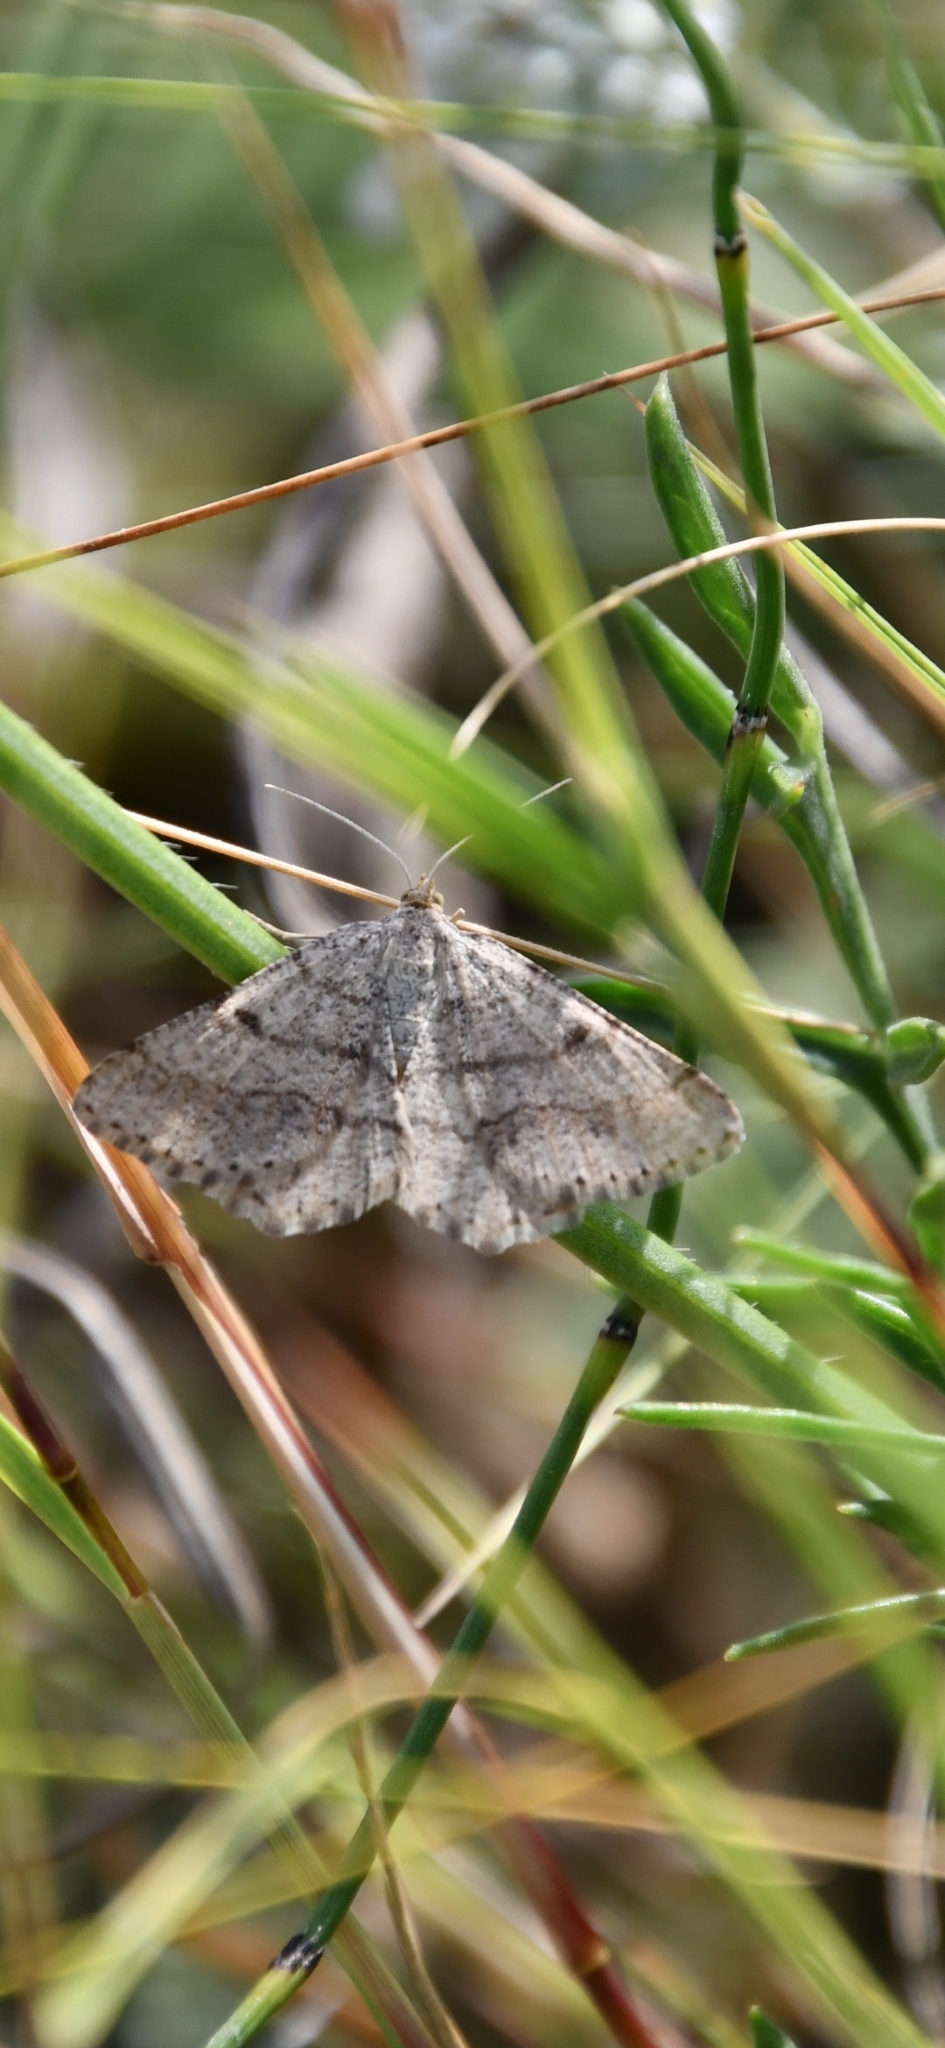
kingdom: Animalia
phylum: Arthropoda
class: Insecta
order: Lepidoptera
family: Geometridae
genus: Tephrina
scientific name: Tephrina murinaria
